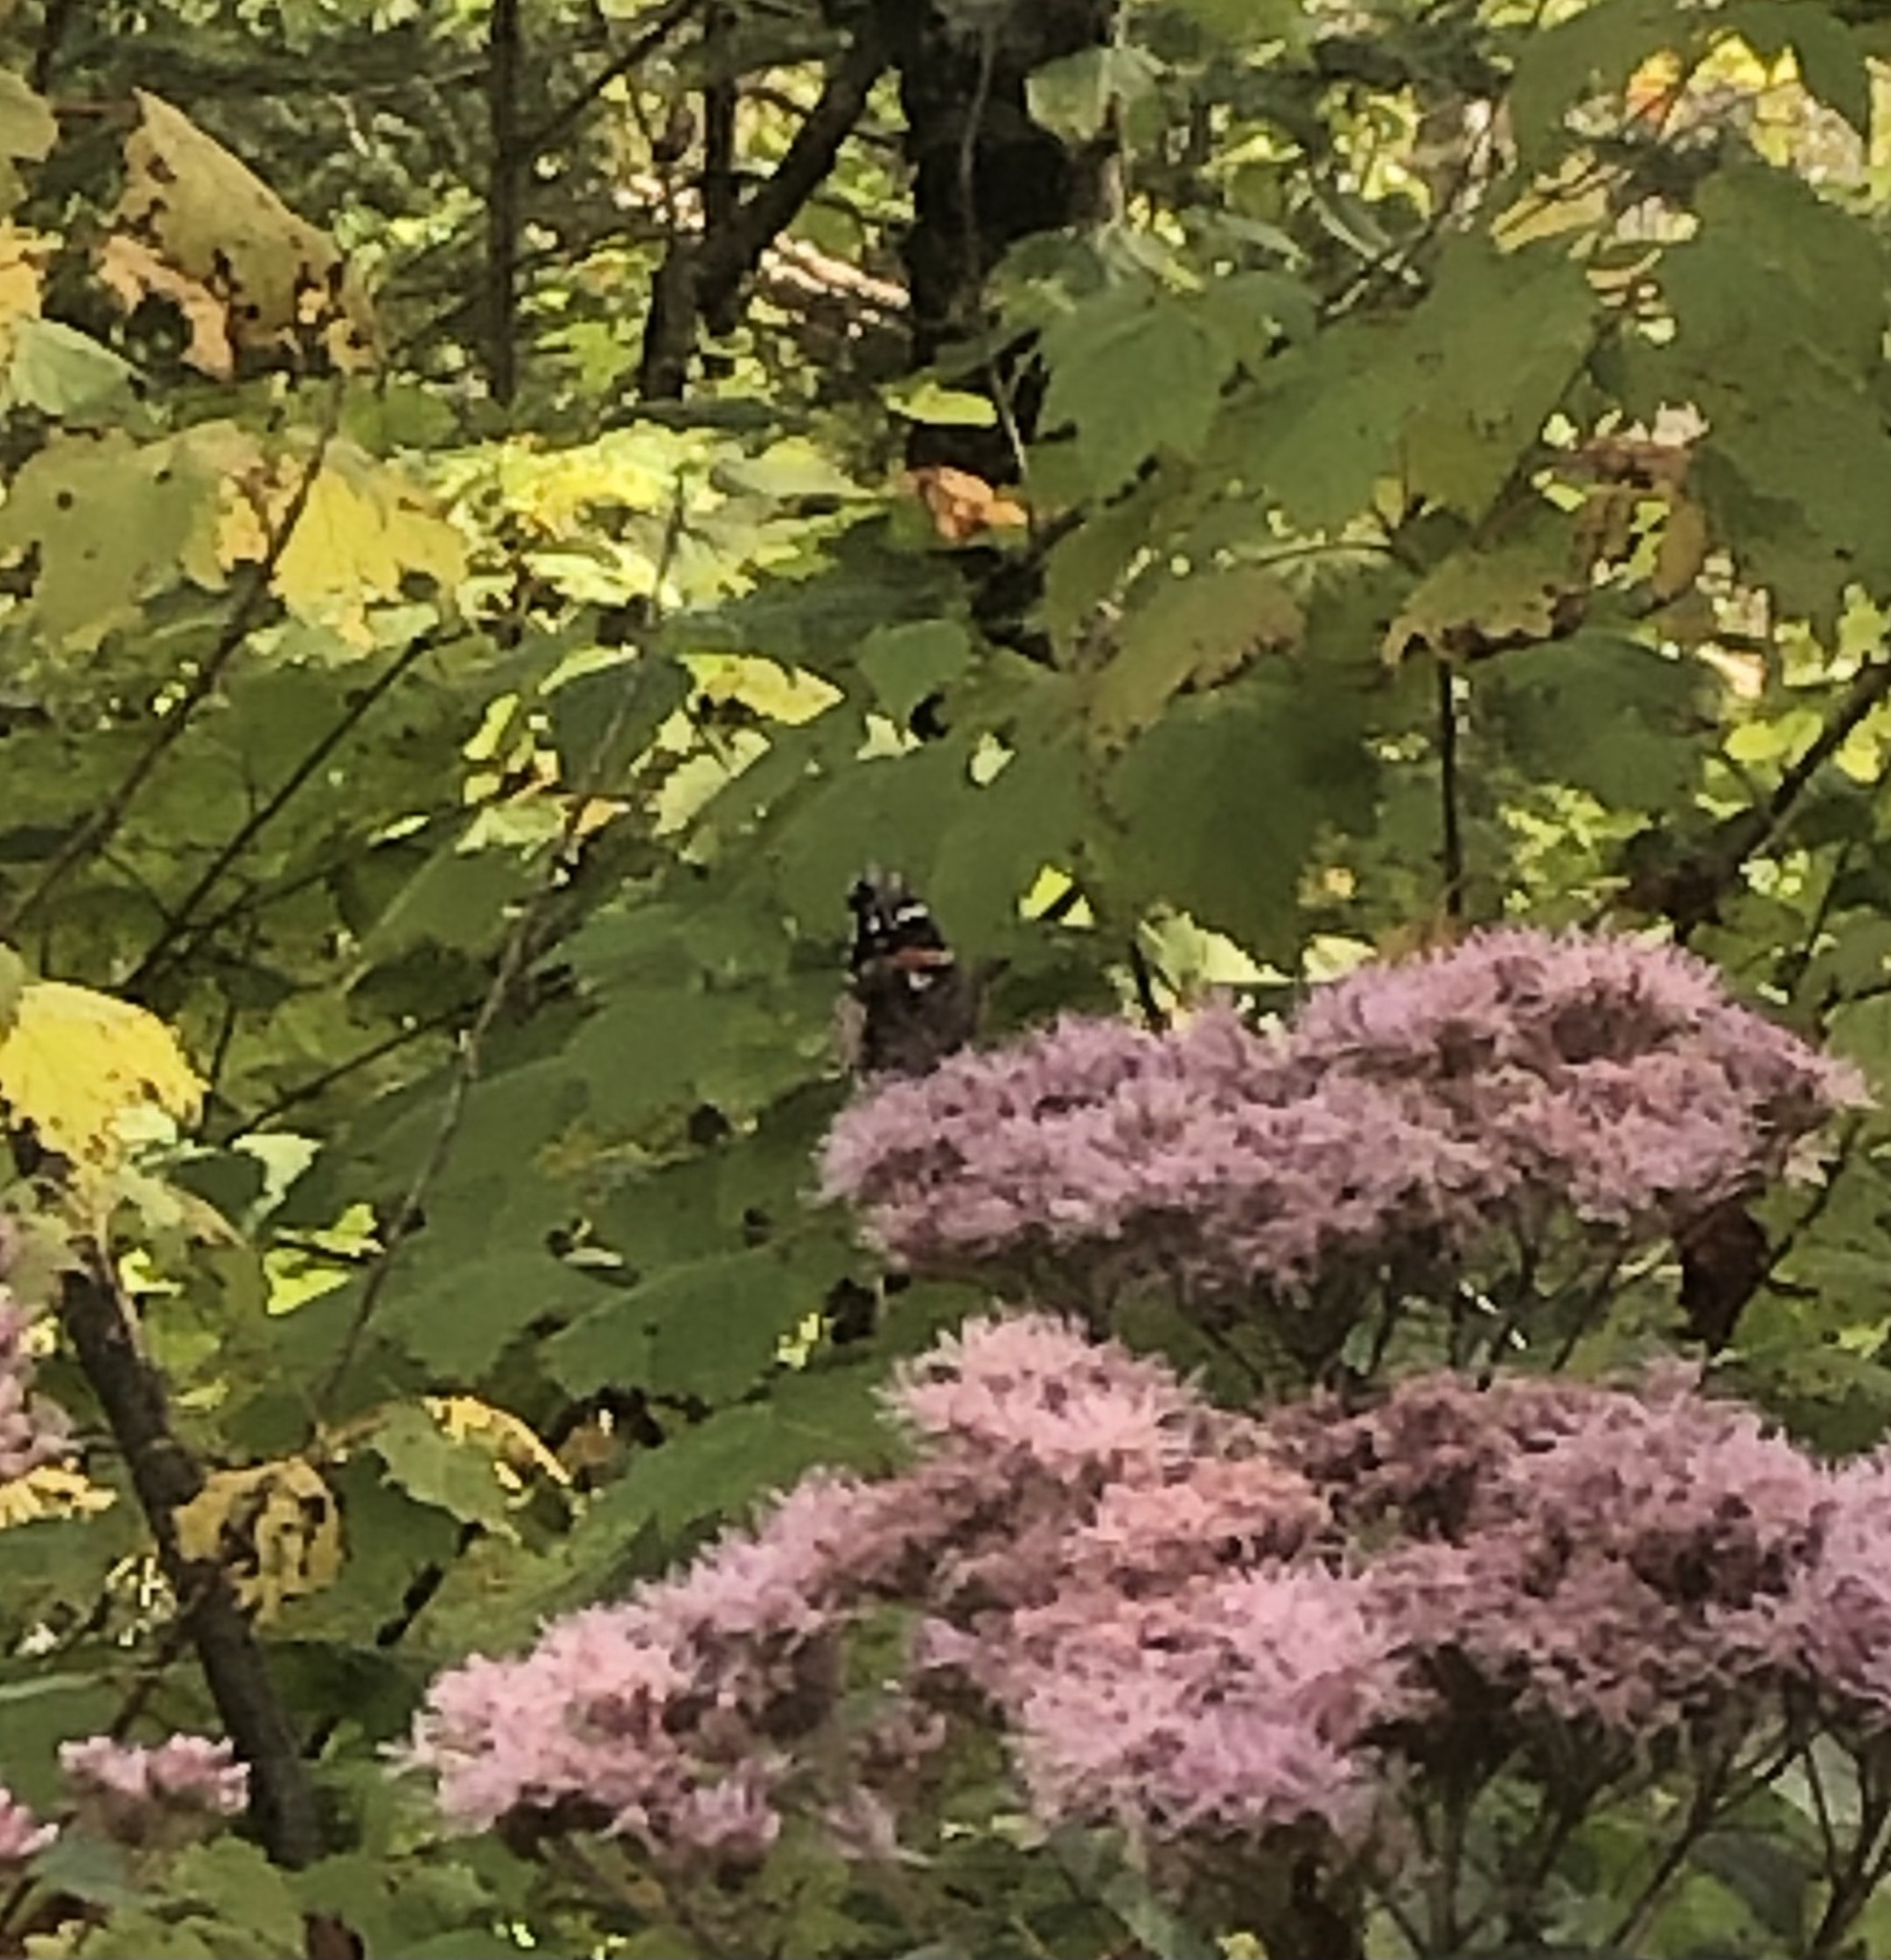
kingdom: Animalia
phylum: Arthropoda
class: Insecta
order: Lepidoptera
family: Nymphalidae
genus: Vanessa
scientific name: Vanessa atalanta
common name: Red admiral
